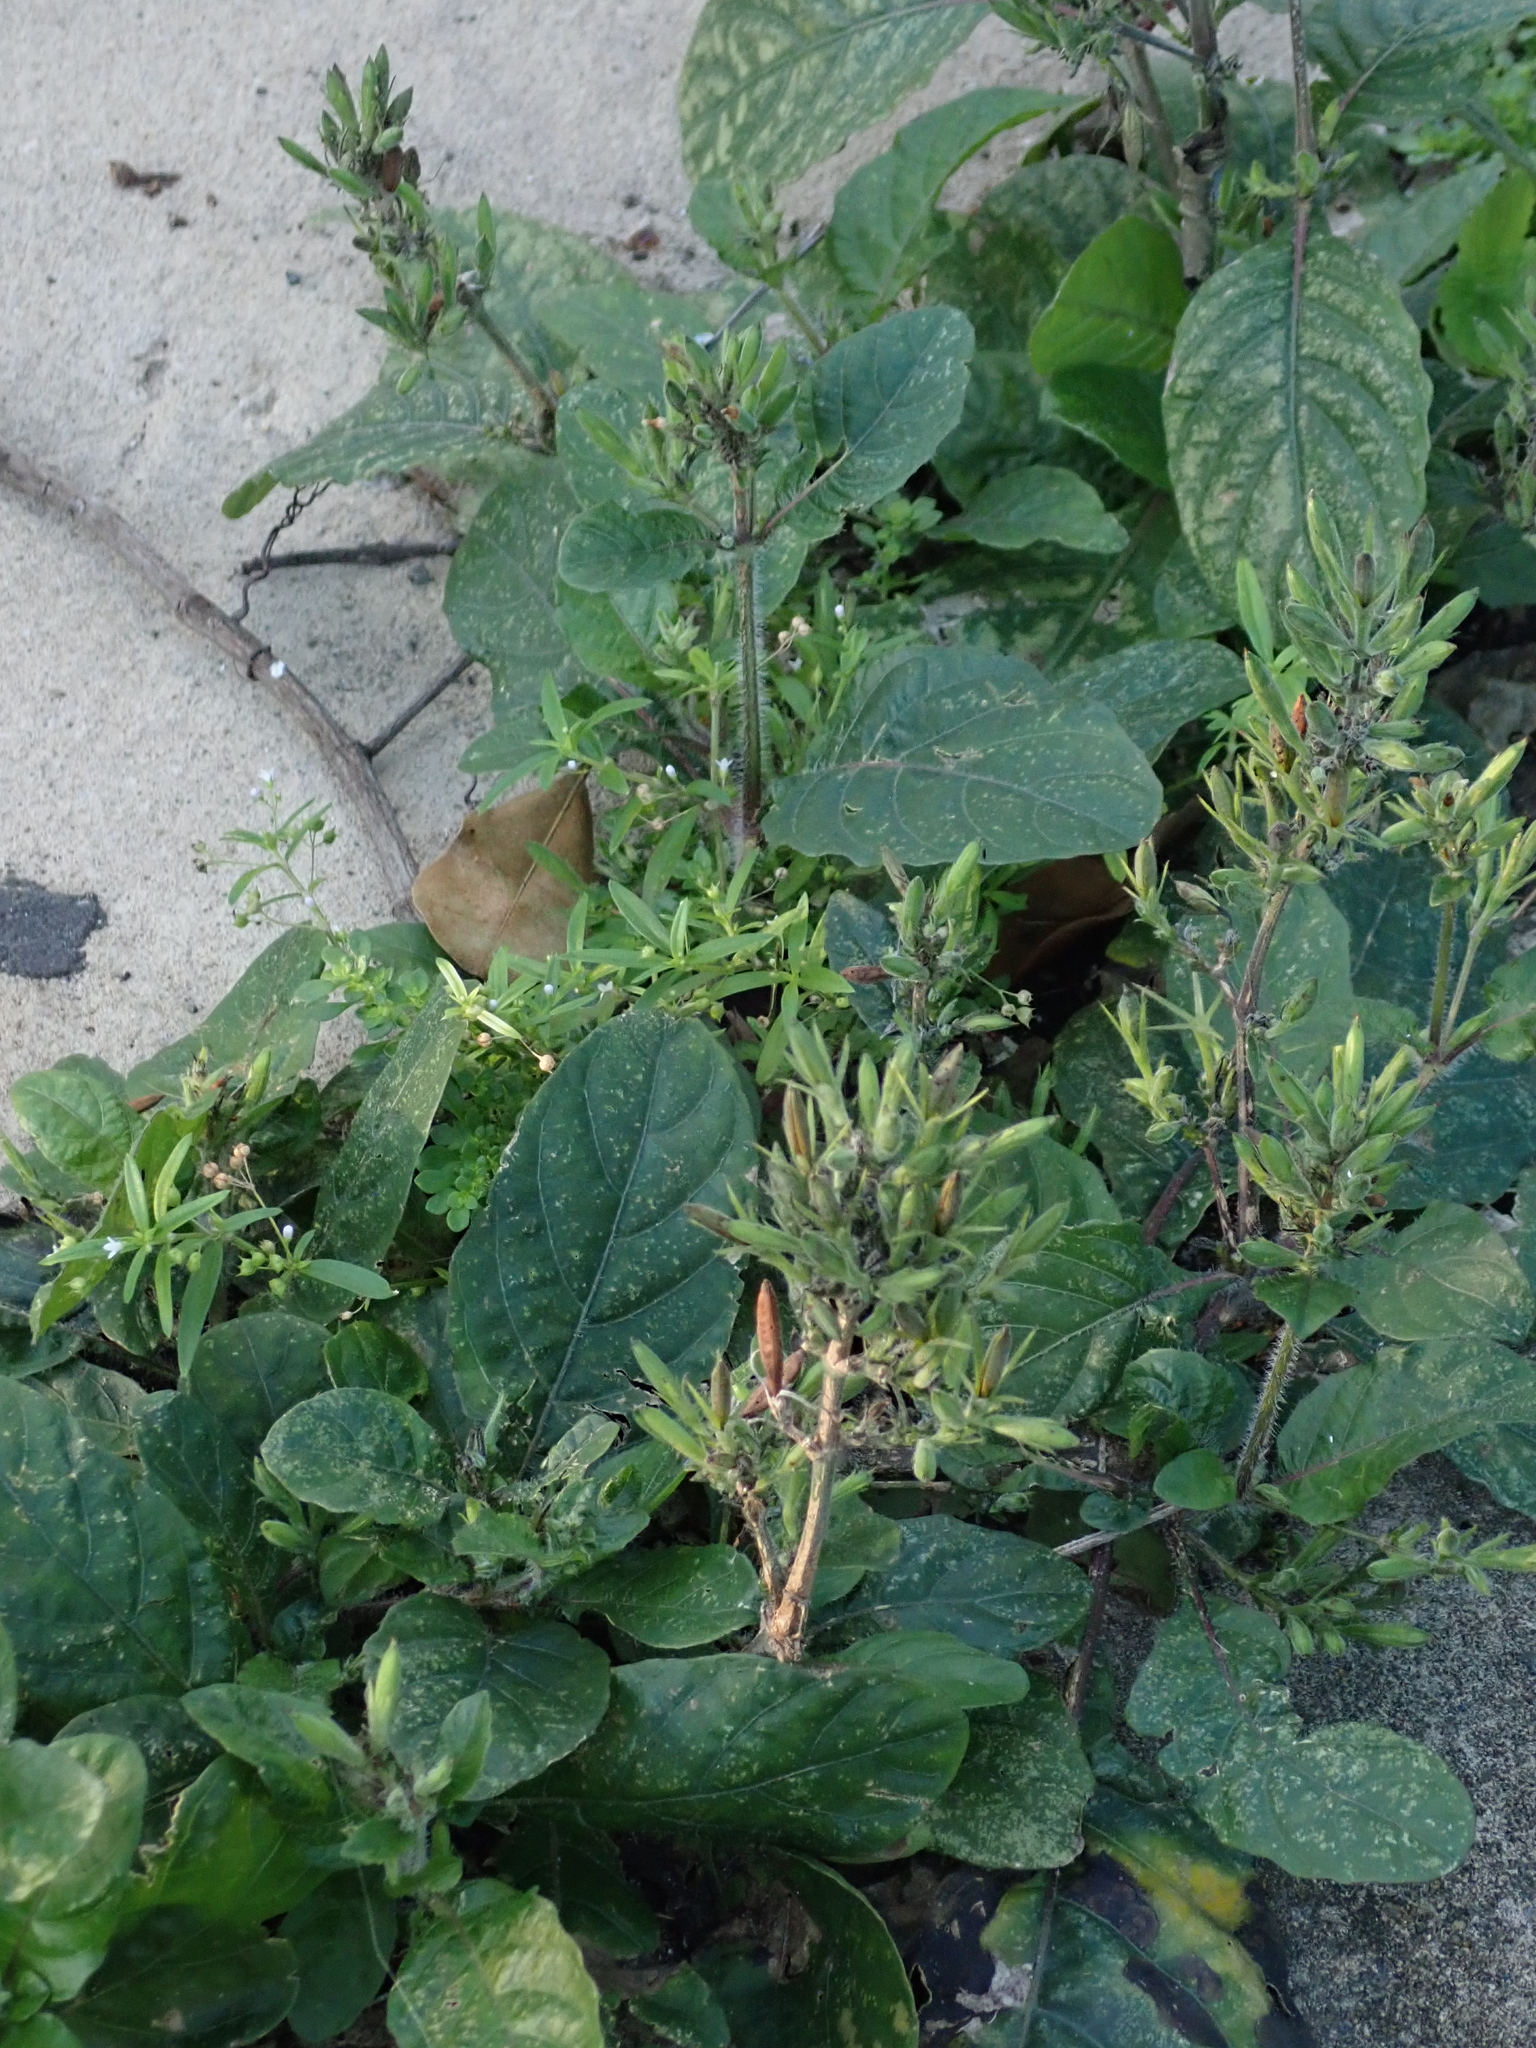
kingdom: Plantae
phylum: Tracheophyta
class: Magnoliopsida
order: Lamiales
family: Acanthaceae
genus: Ruellia
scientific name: Ruellia ciliatiflora
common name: Hairyflower wild petunia
